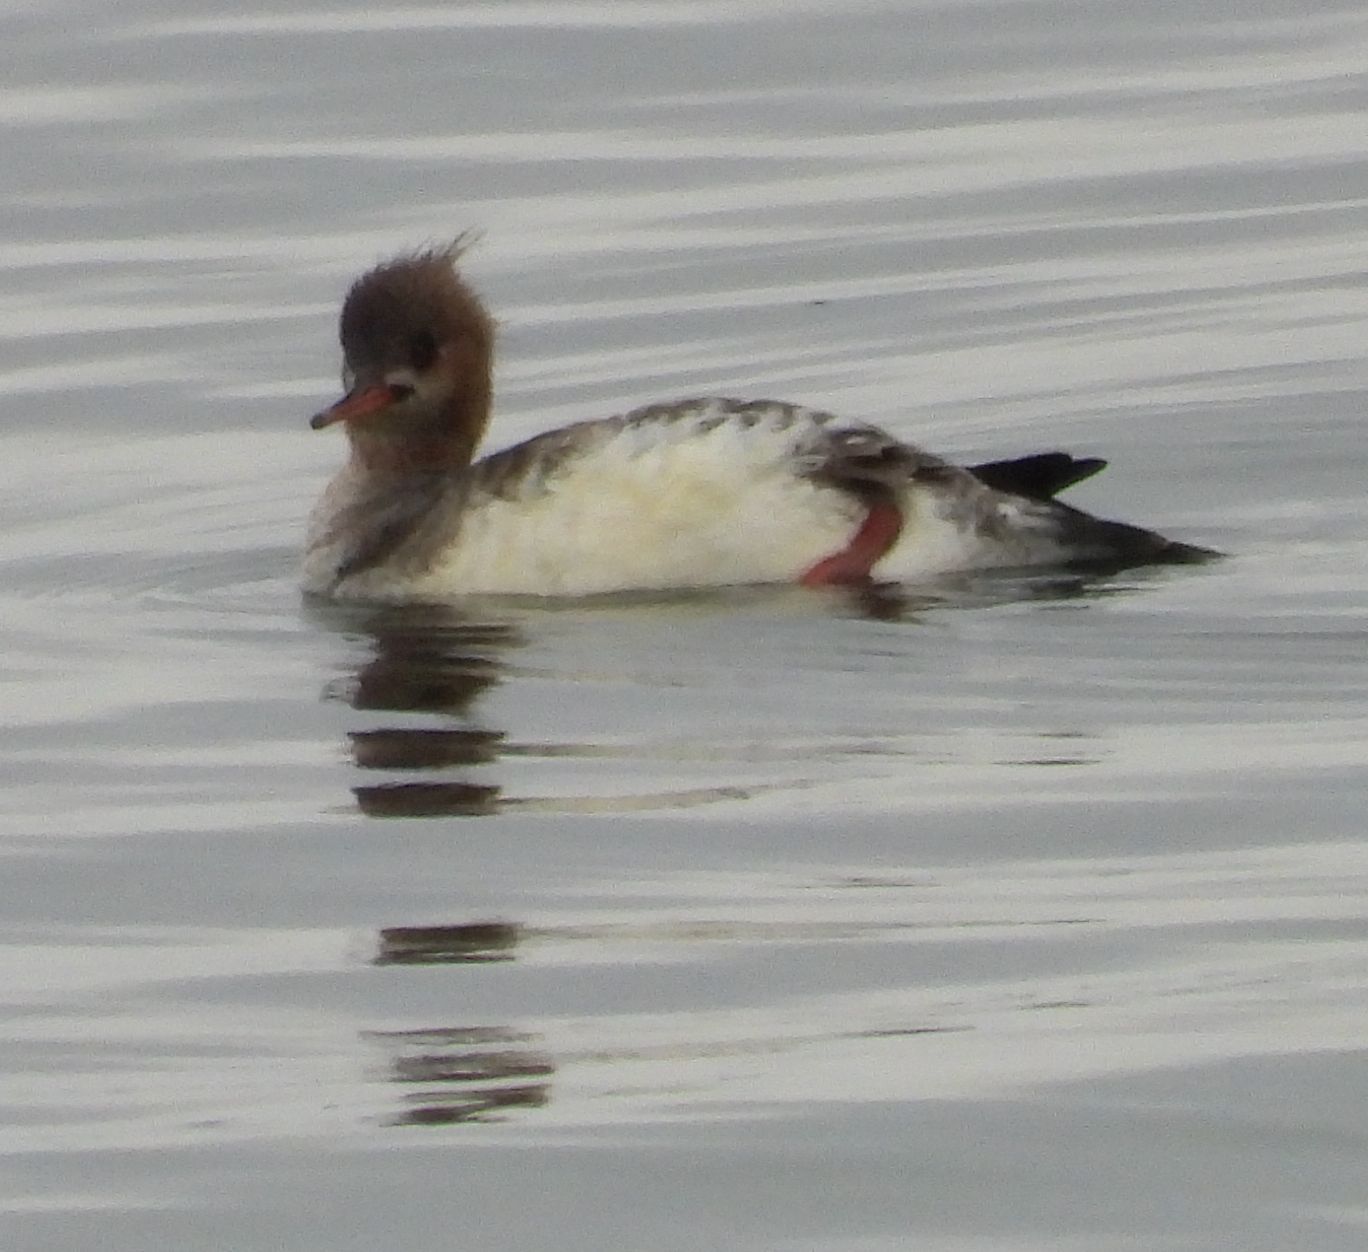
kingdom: Animalia
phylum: Chordata
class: Aves
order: Anseriformes
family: Anatidae
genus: Mergus
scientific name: Mergus serrator
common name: Red-breasted merganser
